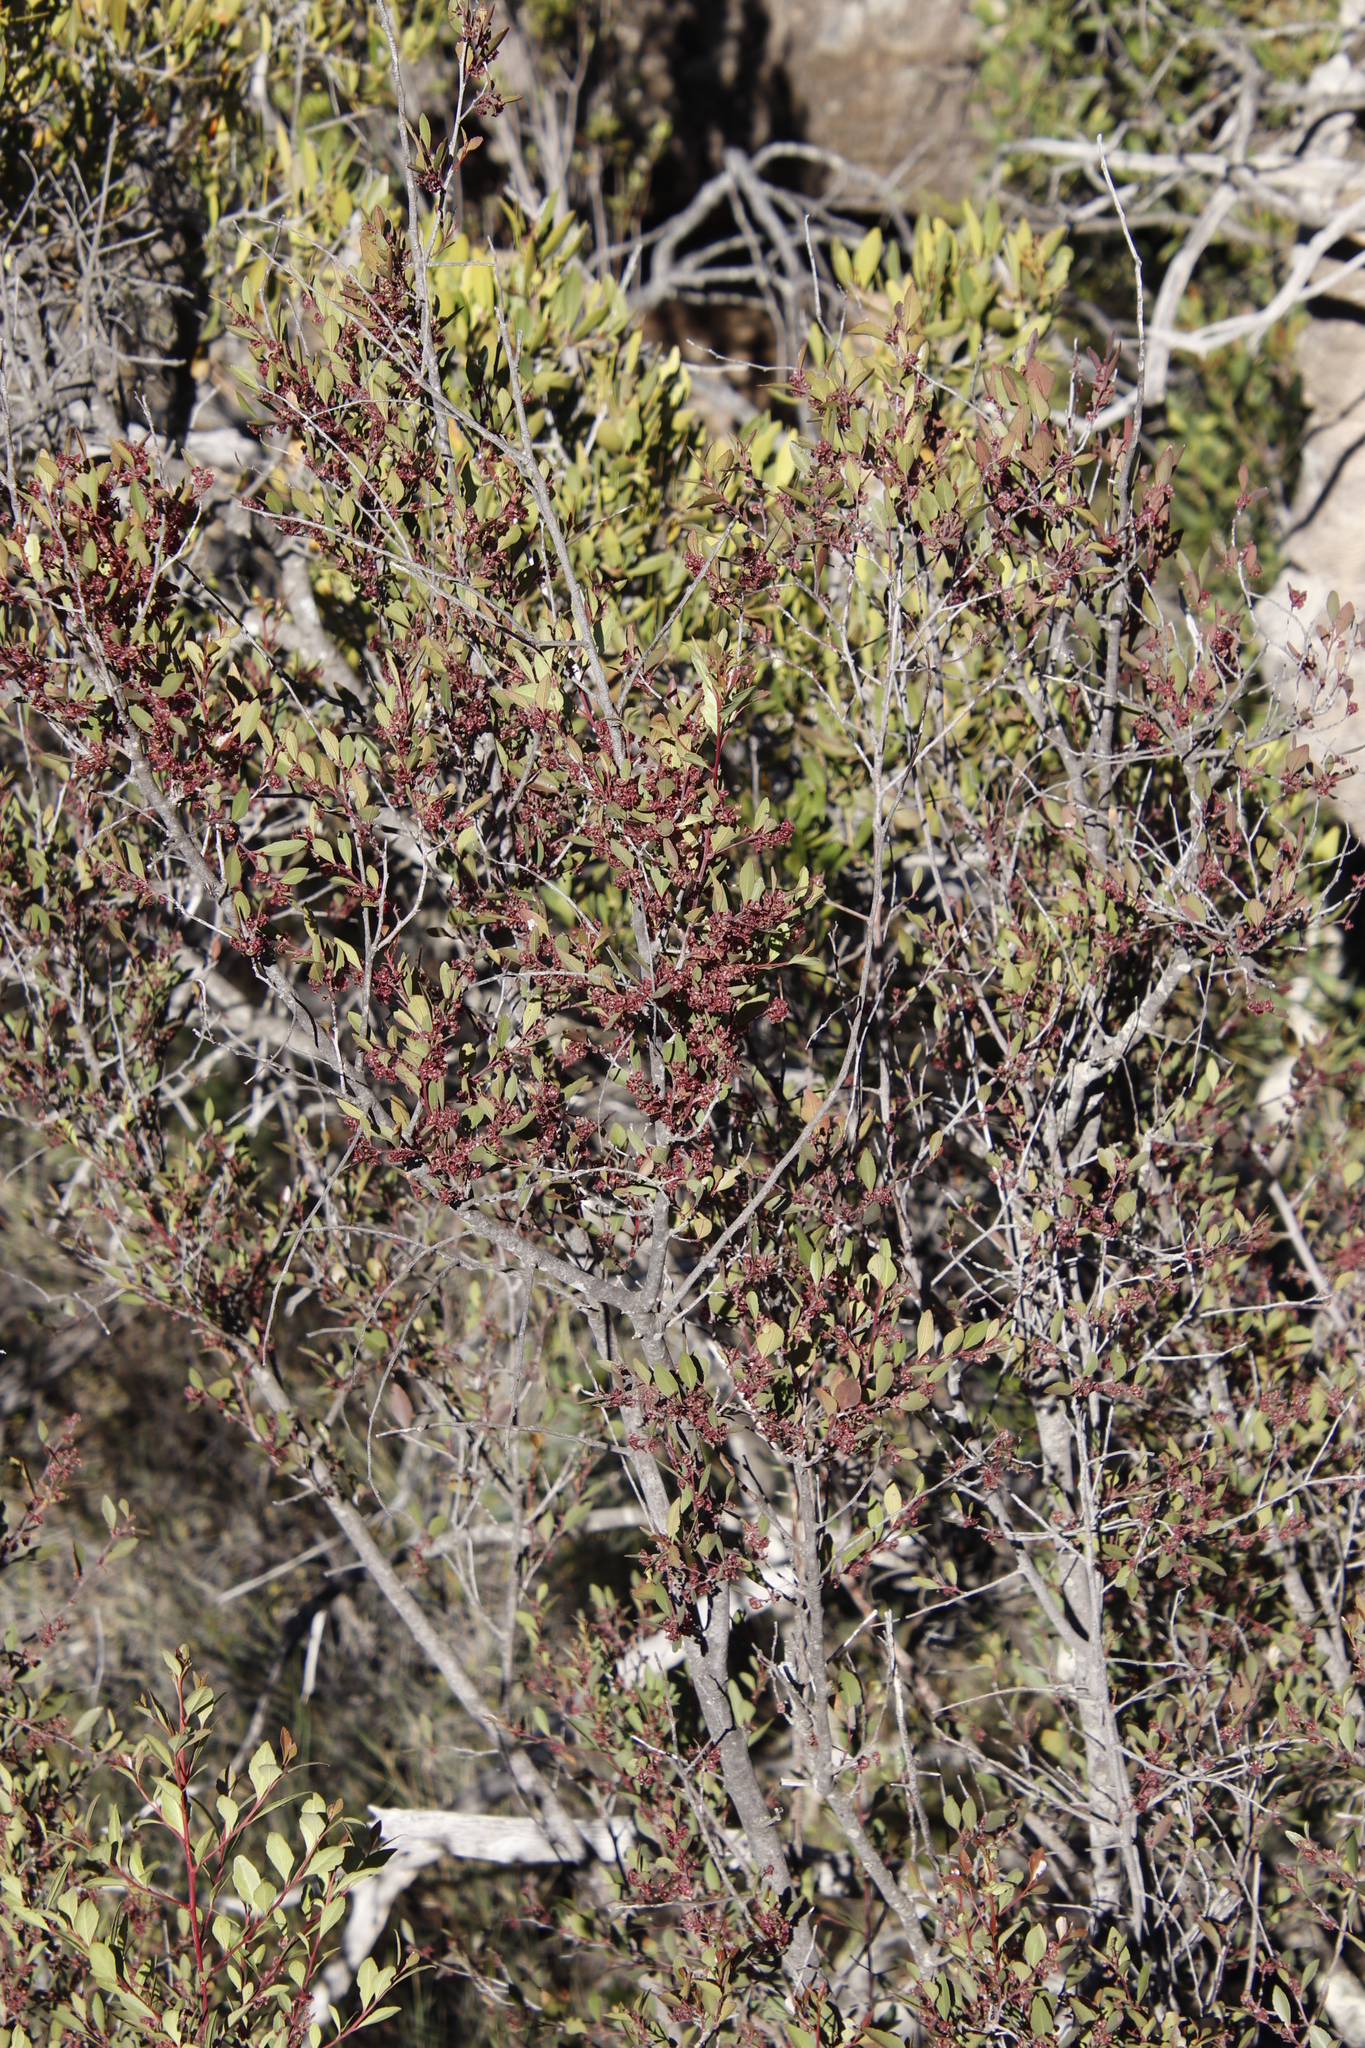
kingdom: Plantae
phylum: Tracheophyta
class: Magnoliopsida
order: Celastrales
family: Celastraceae
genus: Gymnosporia
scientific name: Gymnosporia acuminata
